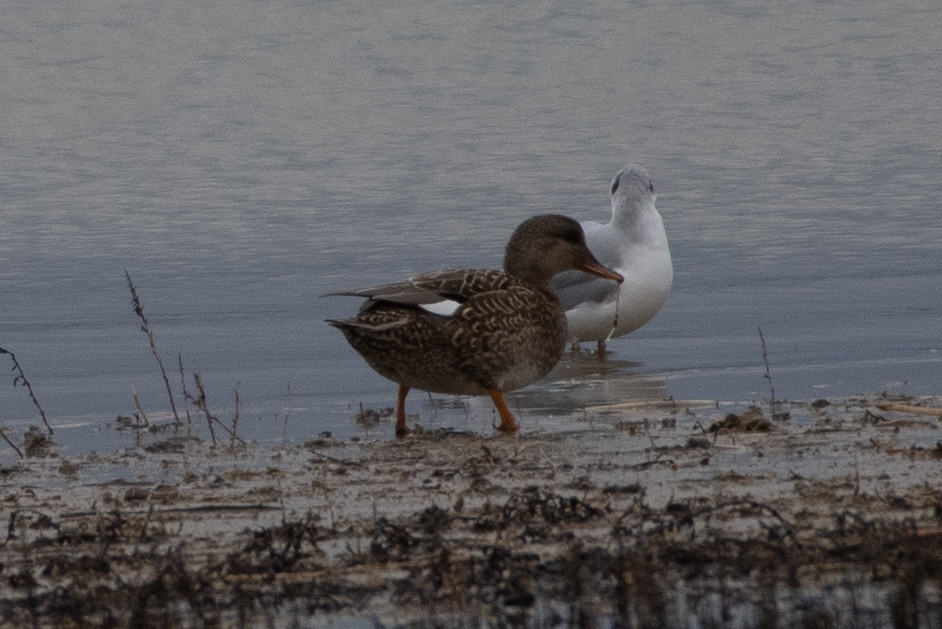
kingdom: Animalia
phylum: Chordata
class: Aves
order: Anseriformes
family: Anatidae
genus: Mareca
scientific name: Mareca strepera
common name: Gadwall
